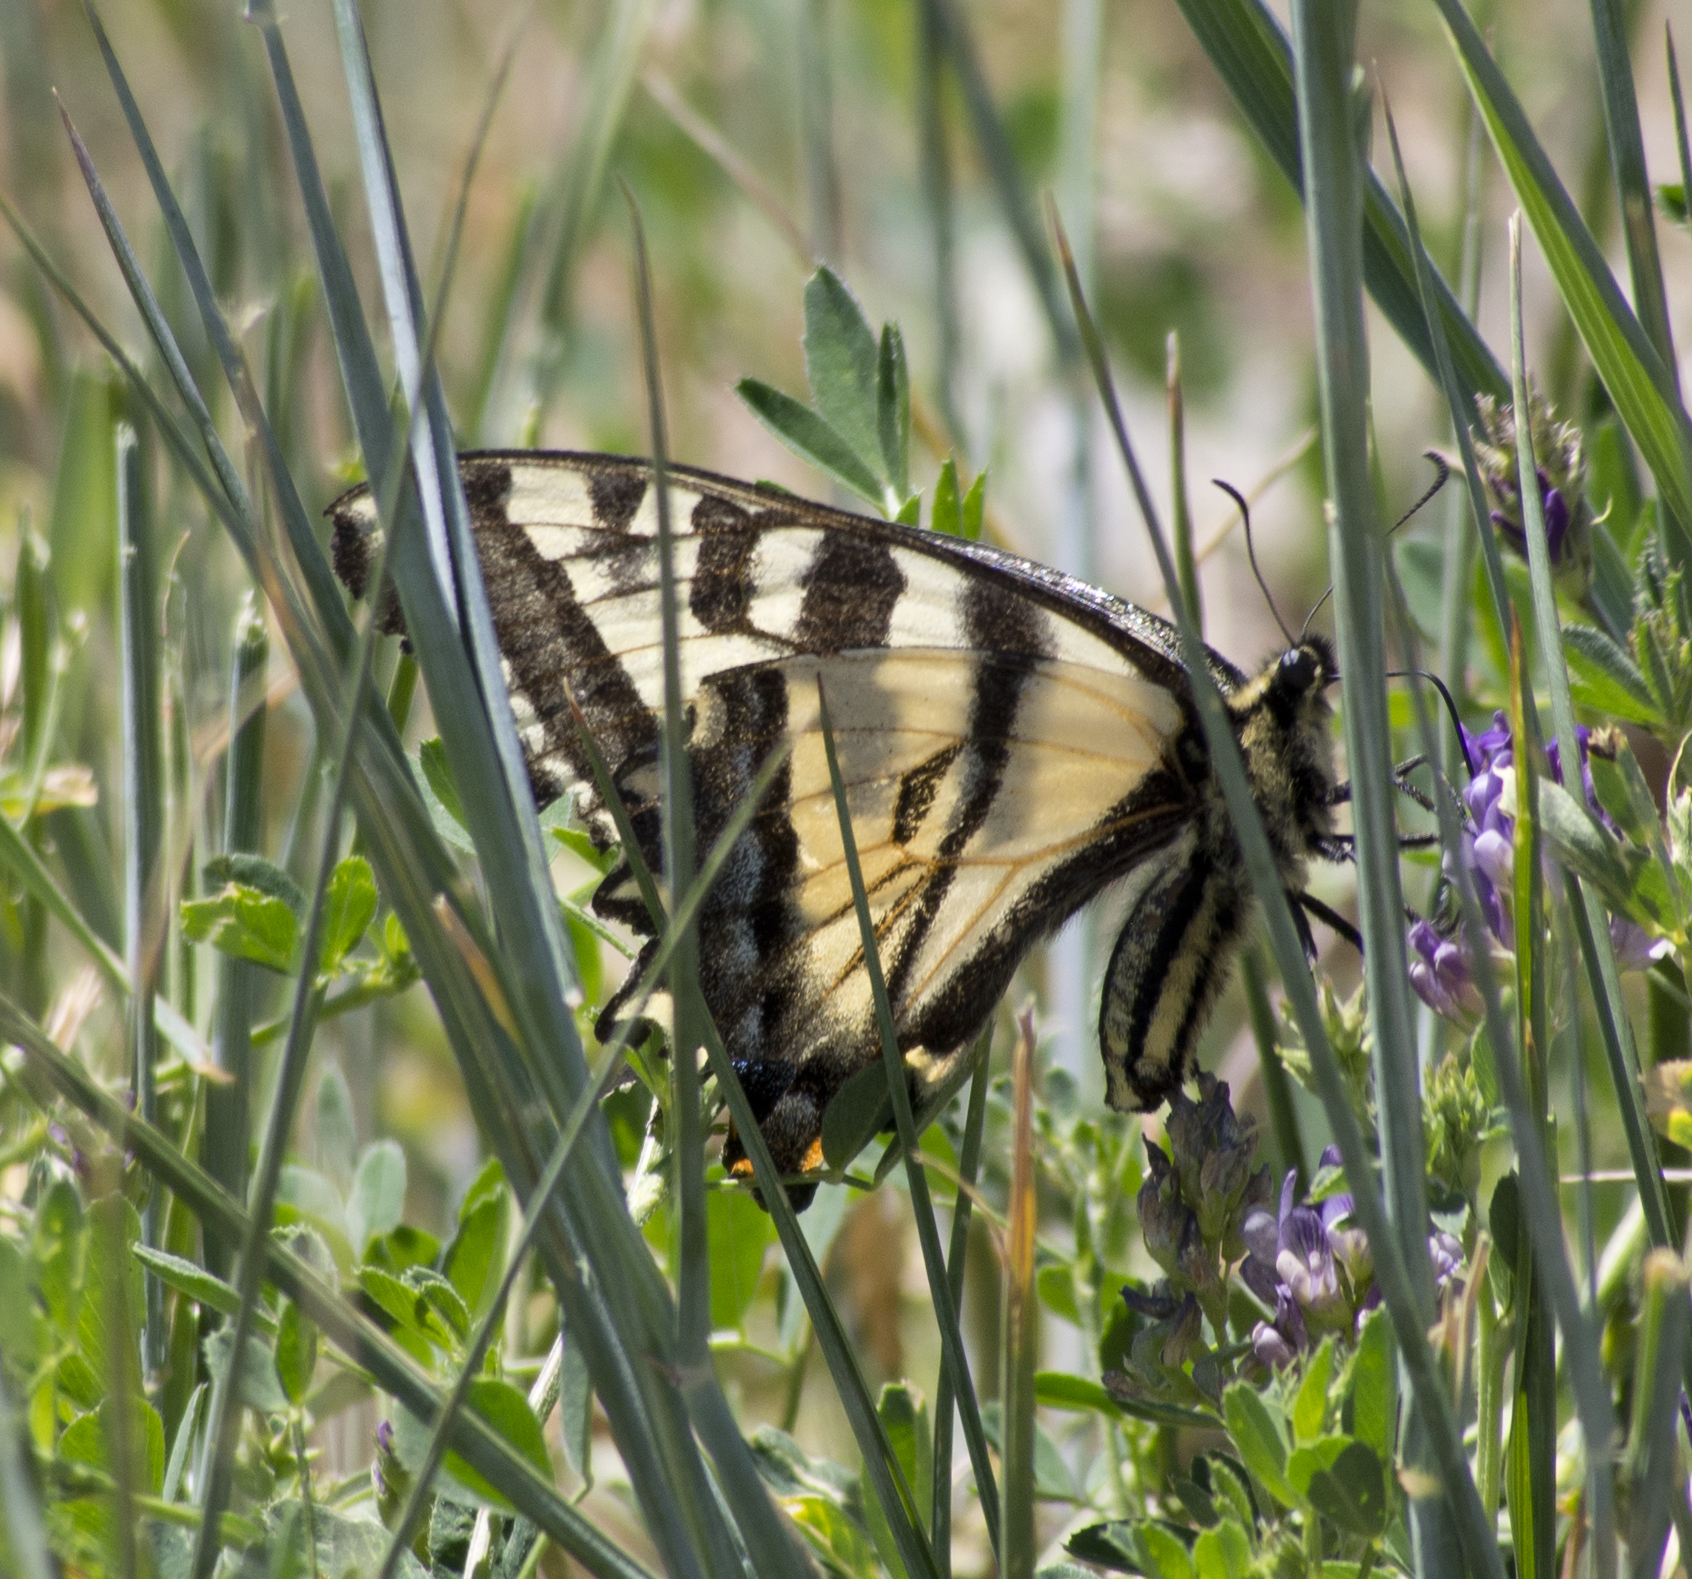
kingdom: Animalia
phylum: Arthropoda
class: Insecta
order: Lepidoptera
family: Papilionidae
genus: Papilio
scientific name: Papilio rutulus
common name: Western tiger swallowtail
